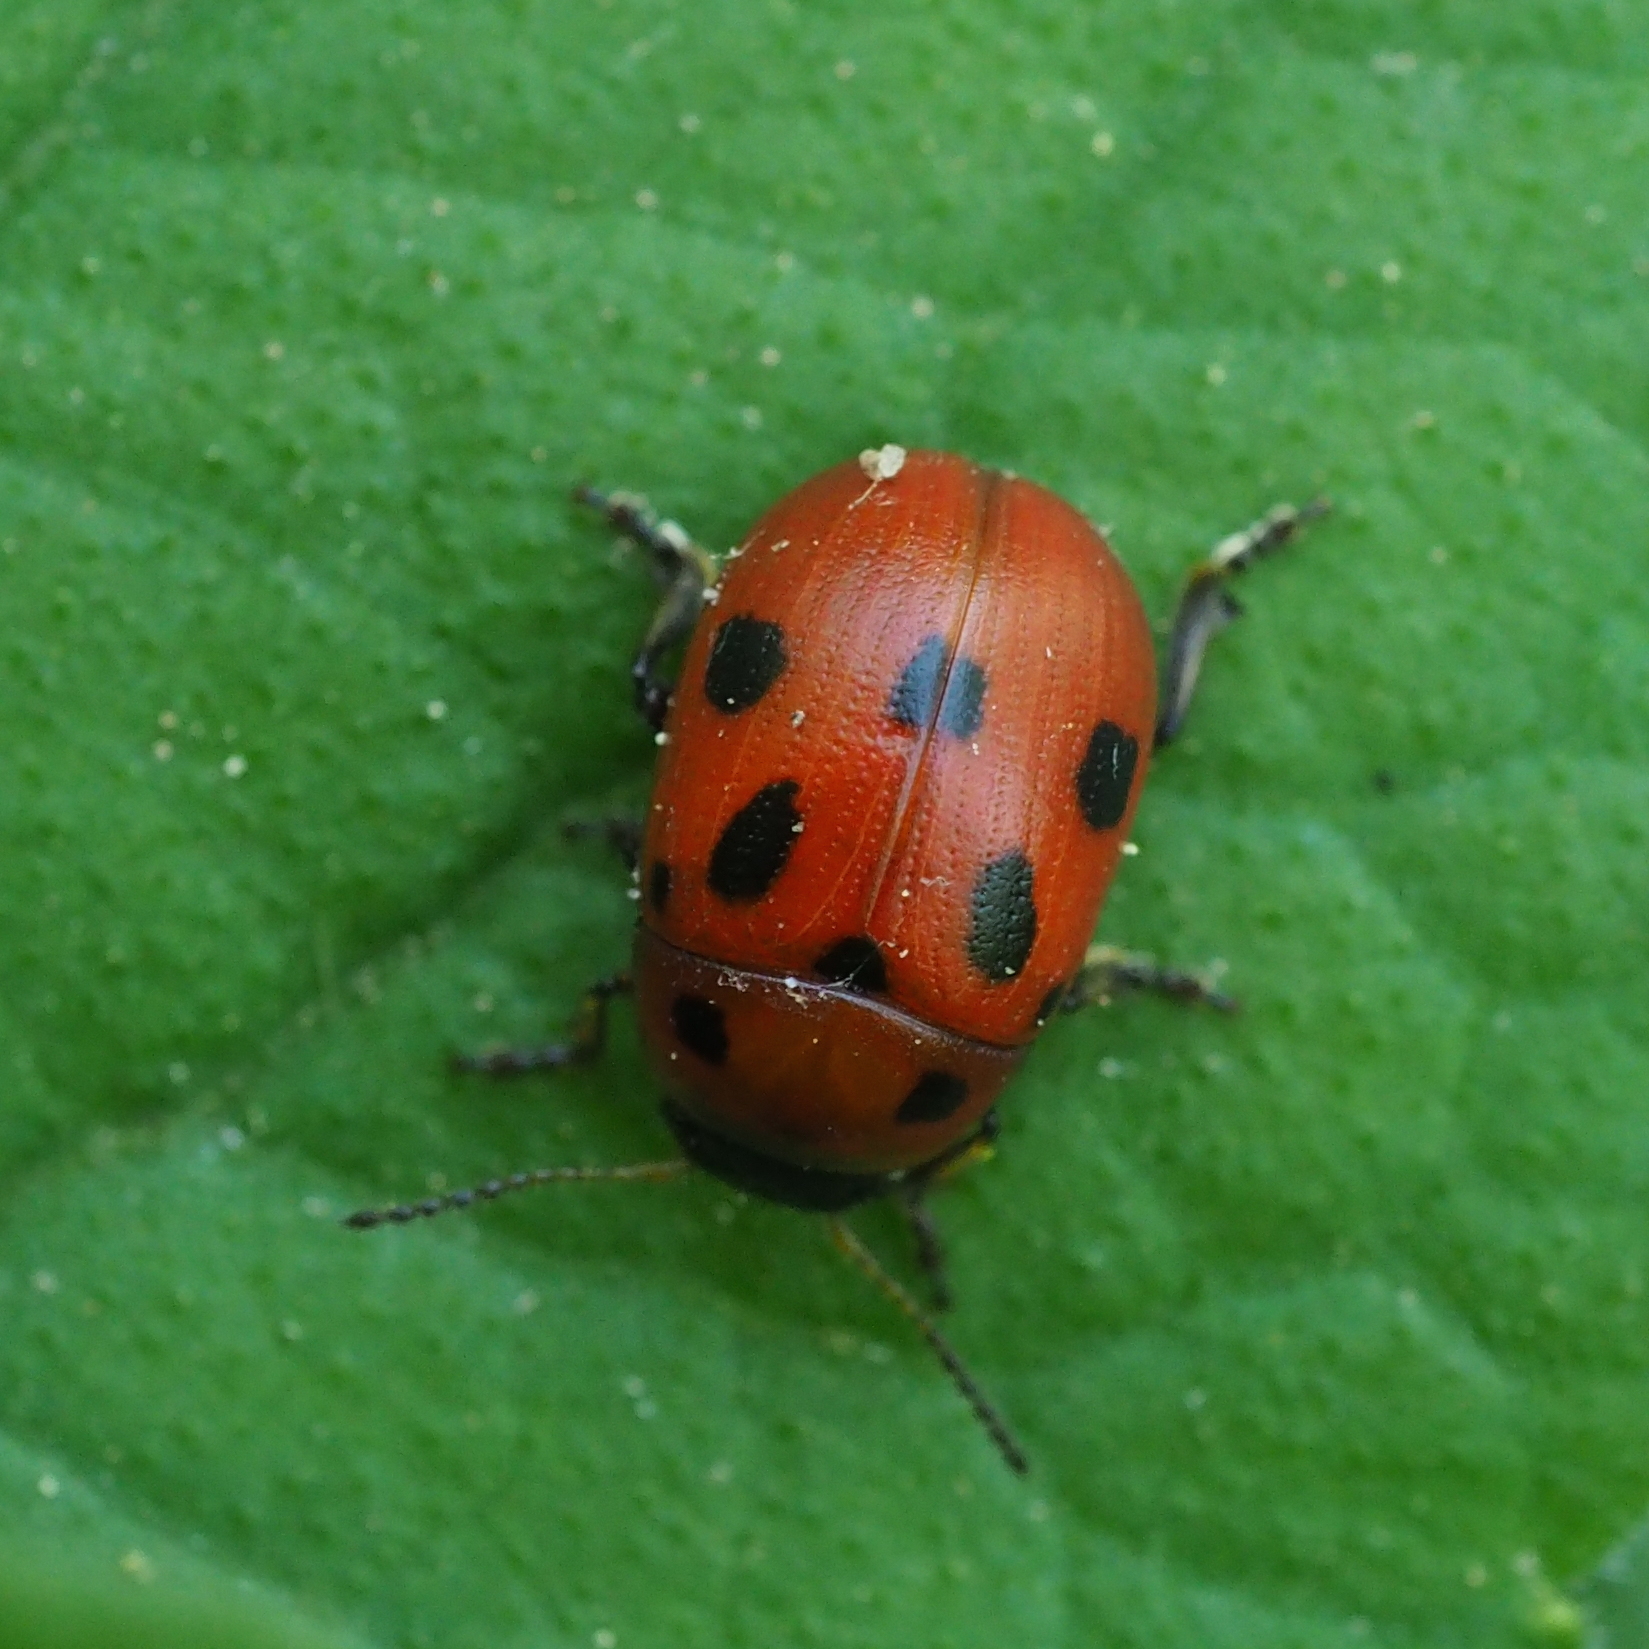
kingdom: Animalia
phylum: Arthropoda
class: Insecta
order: Coleoptera
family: Chrysomelidae
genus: Gonioctena
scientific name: Gonioctena fornicata
